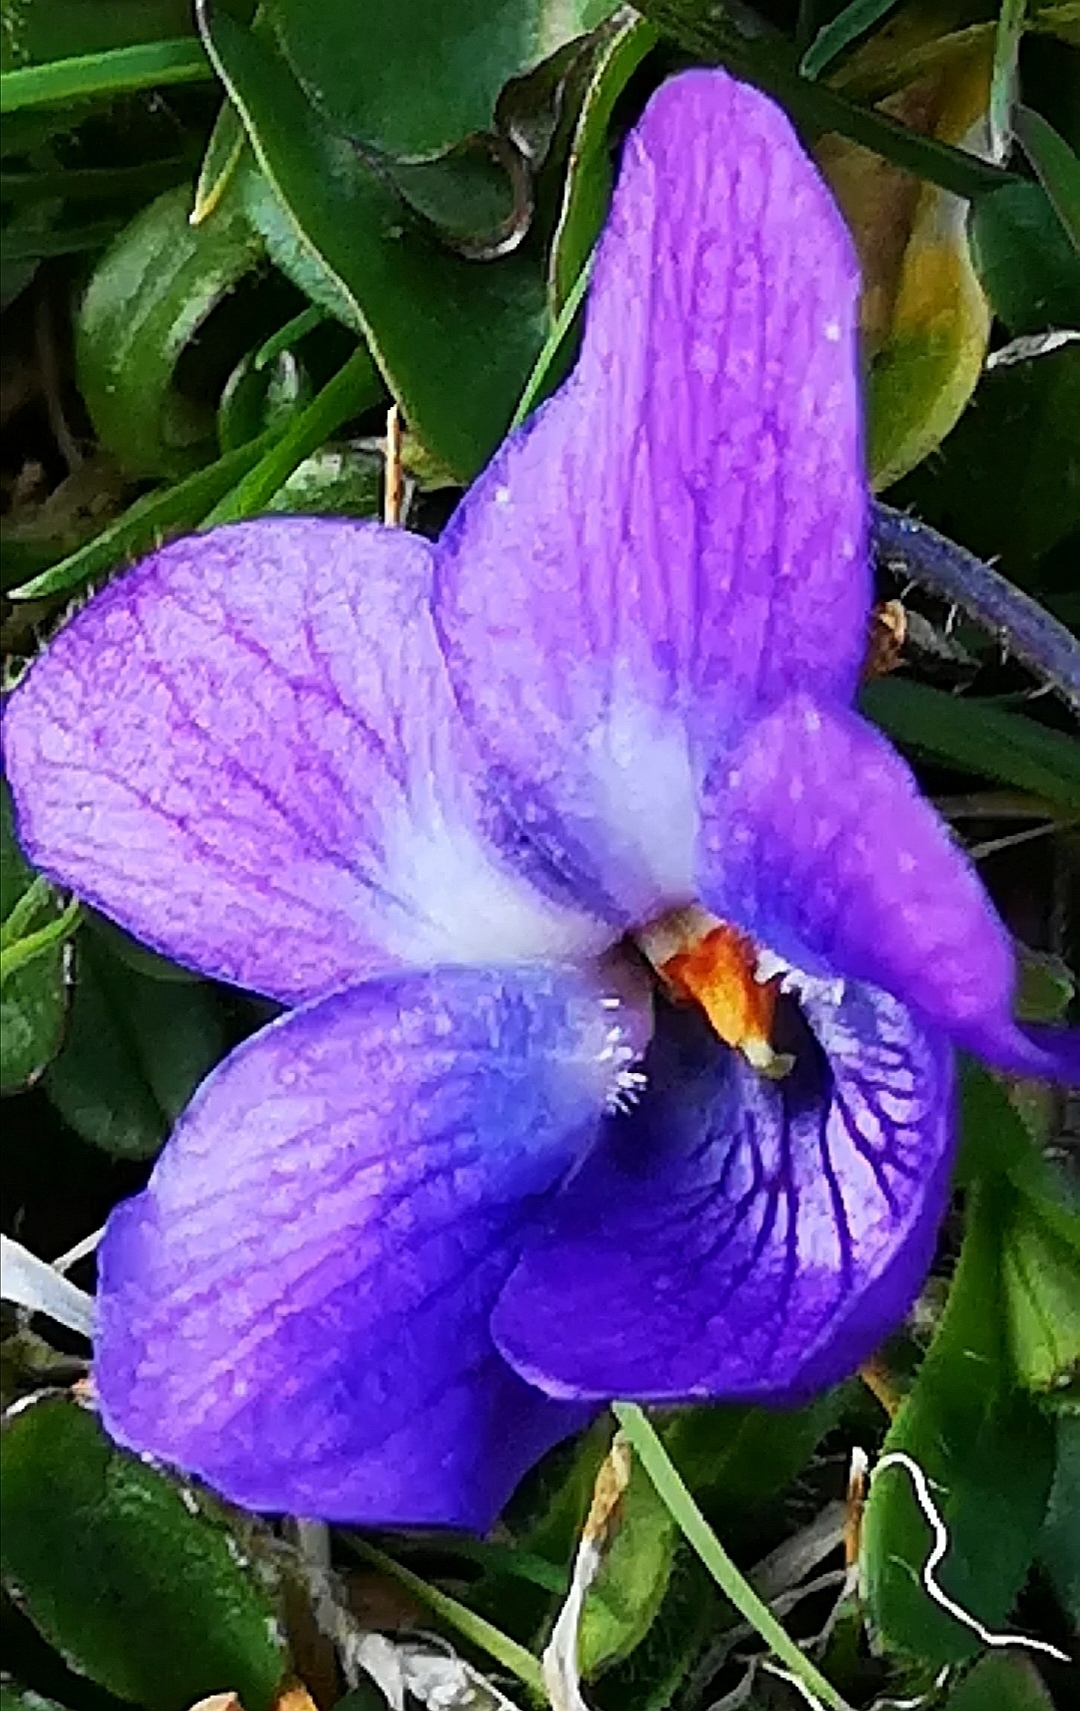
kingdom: Plantae
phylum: Tracheophyta
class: Magnoliopsida
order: Malpighiales
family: Violaceae
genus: Viola
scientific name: Viola odorata
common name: Sweet violet
